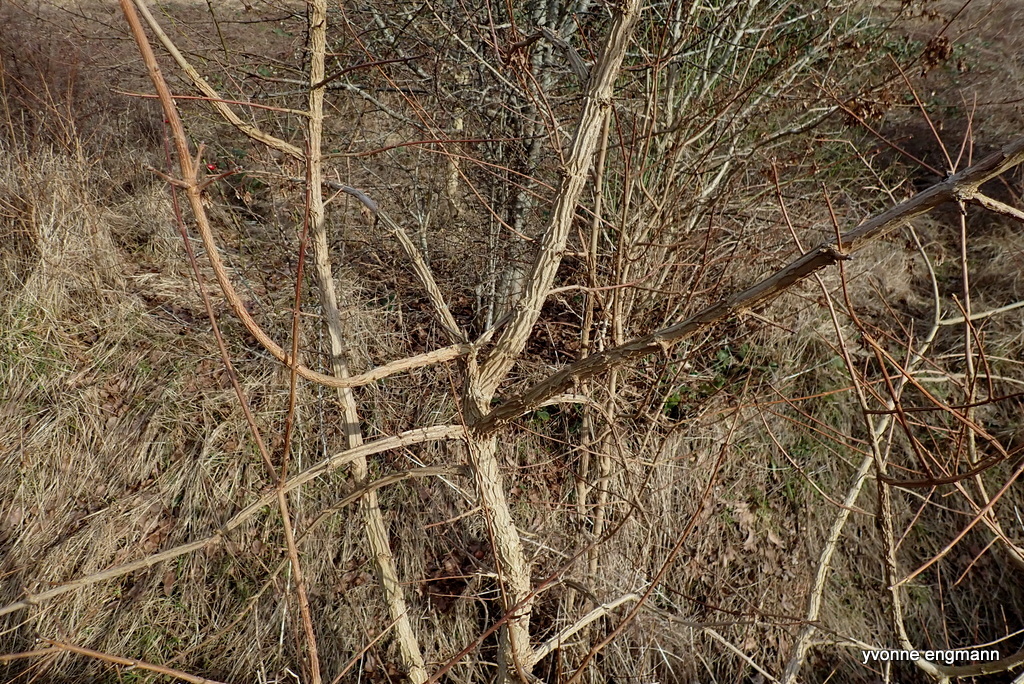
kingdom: Plantae
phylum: Tracheophyta
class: Magnoliopsida
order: Sapindales
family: Sapindaceae
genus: Acer
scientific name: Acer campestre
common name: Field maple
